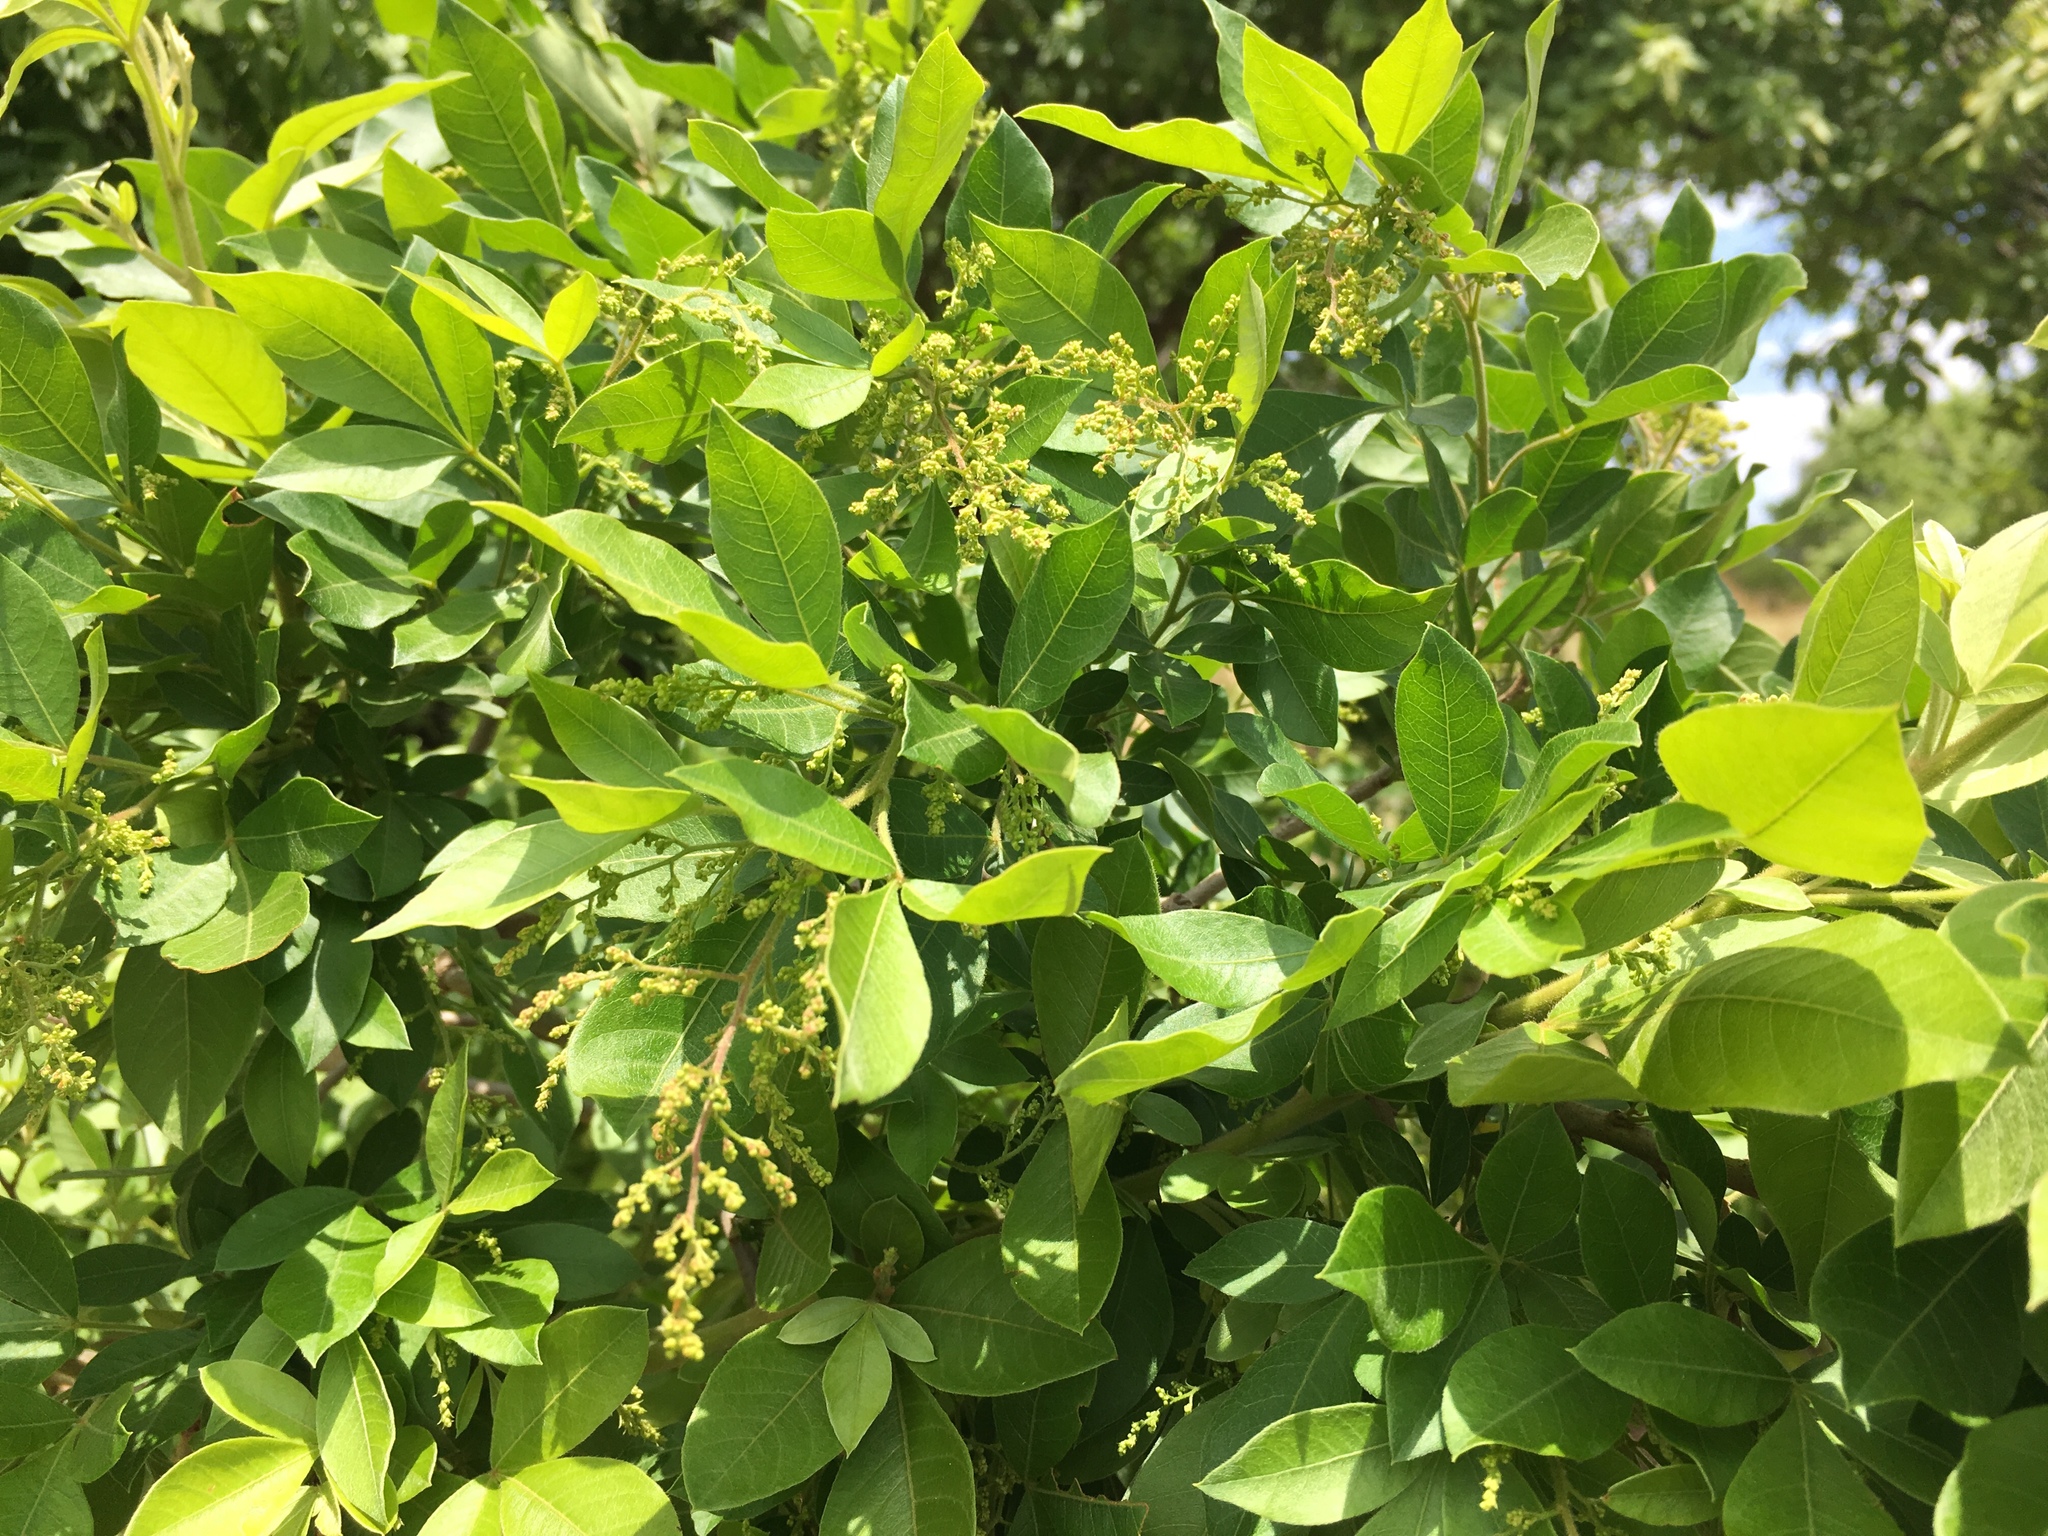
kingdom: Plantae
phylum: Tracheophyta
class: Magnoliopsida
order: Sapindales
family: Anacardiaceae
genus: Searsia
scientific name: Searsia pyroides
